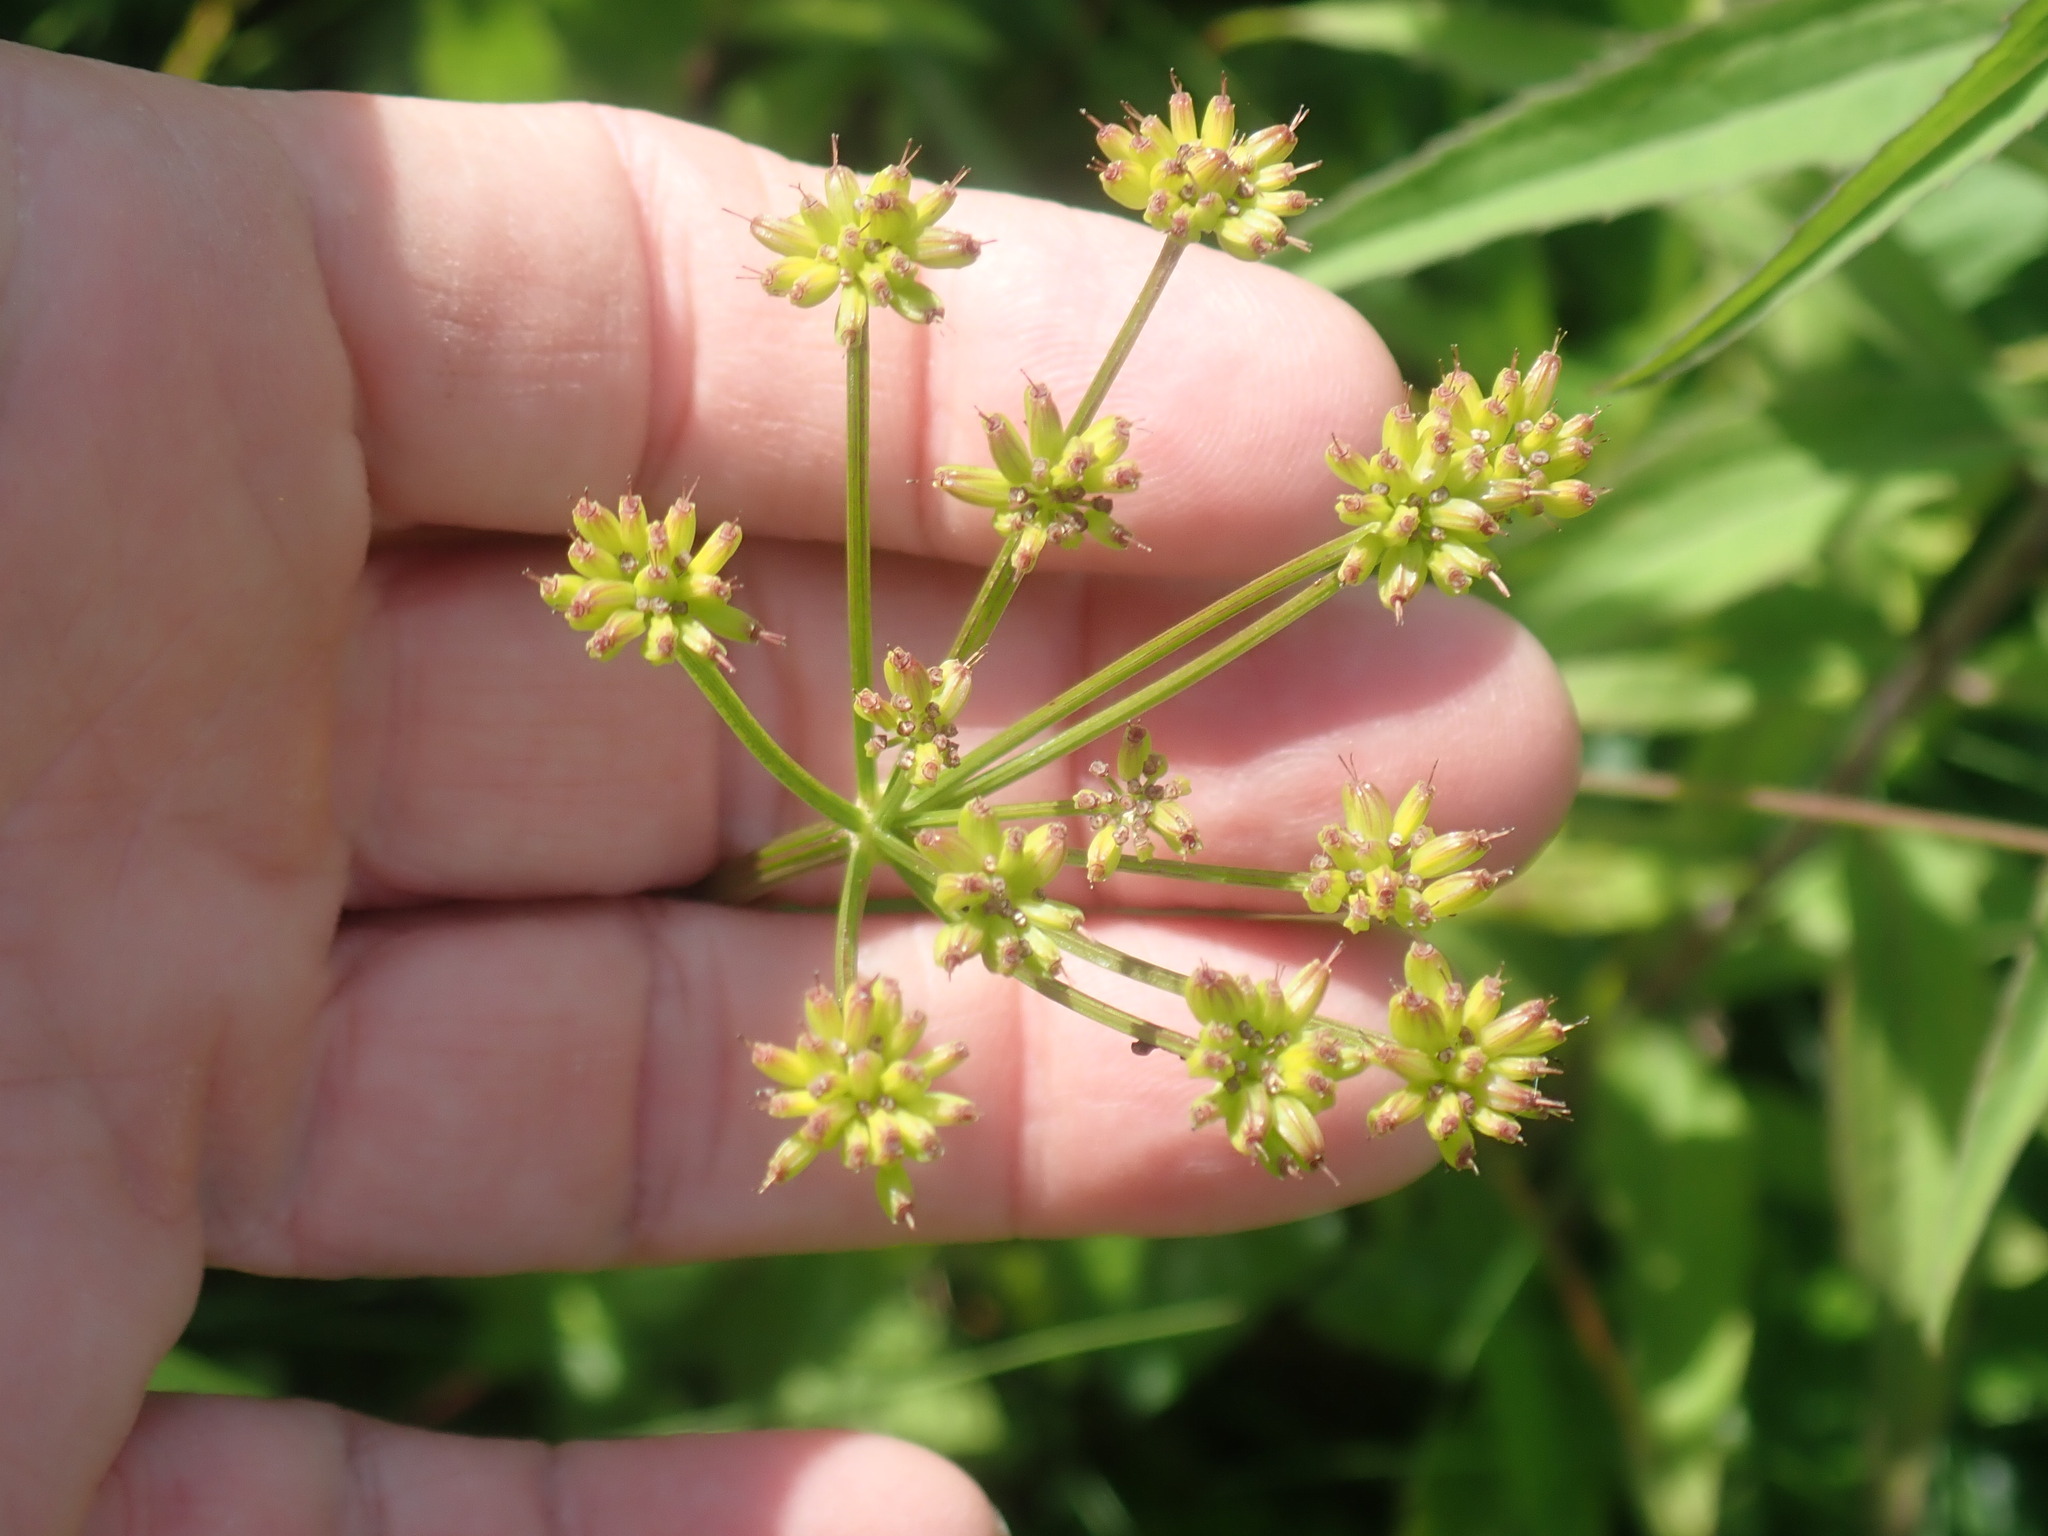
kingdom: Plantae
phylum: Tracheophyta
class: Magnoliopsida
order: Apiales
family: Apiaceae
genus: Zizia
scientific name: Zizia aurea
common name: Golden alexanders
